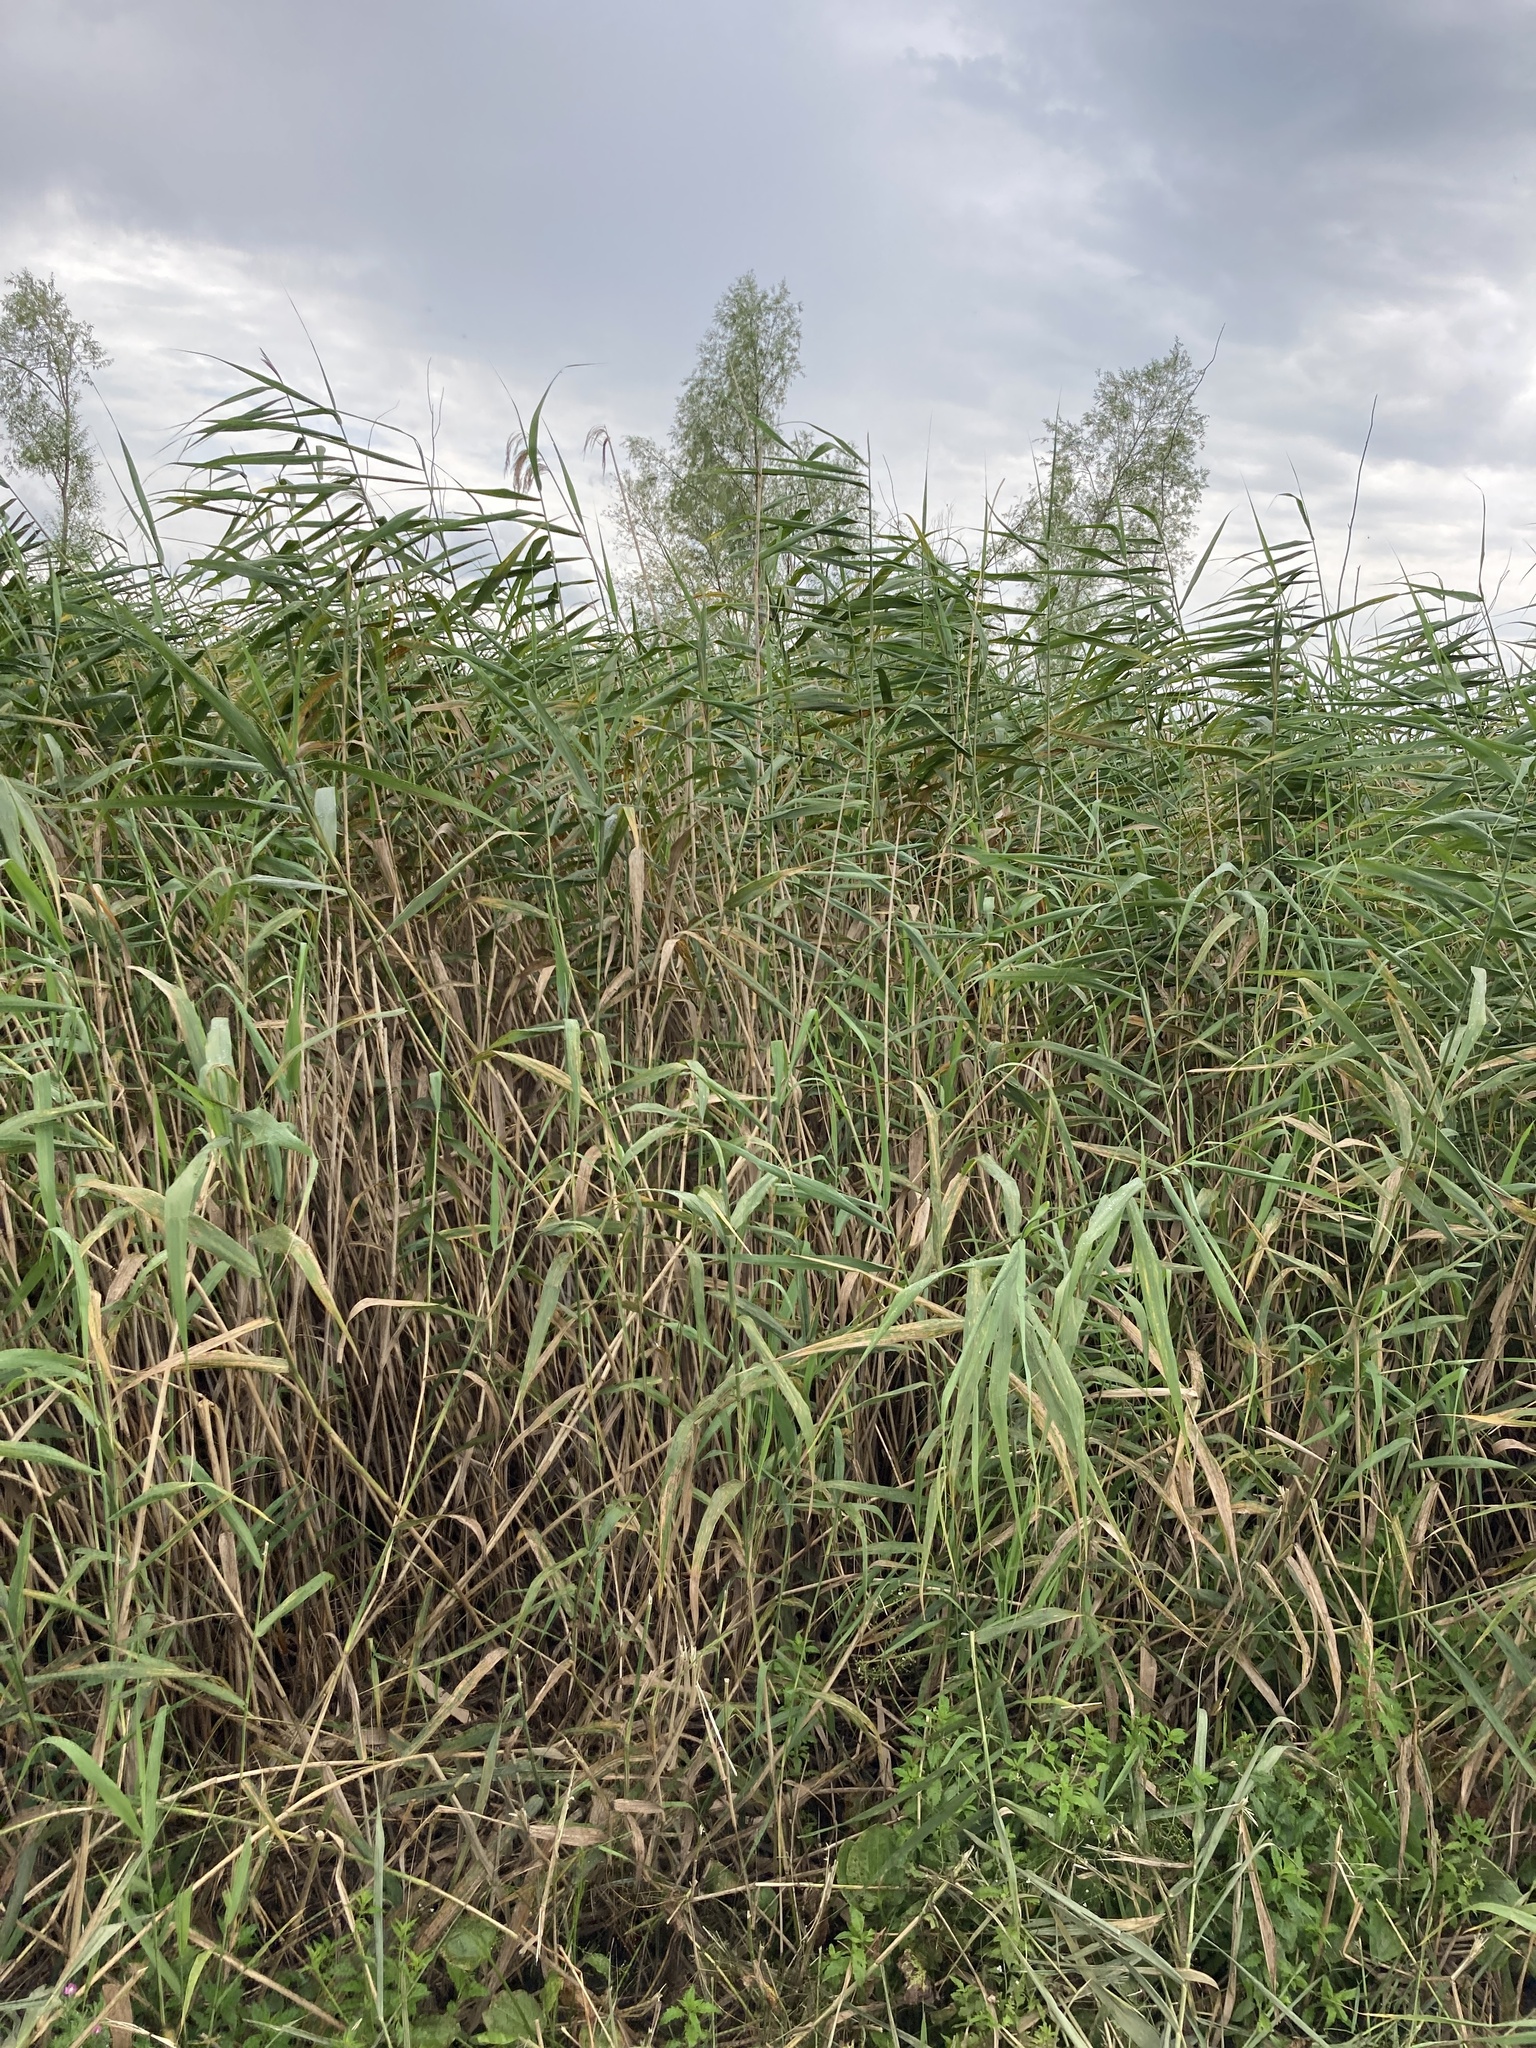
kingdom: Plantae
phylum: Tracheophyta
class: Liliopsida
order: Poales
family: Poaceae
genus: Phragmites
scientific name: Phragmites australis
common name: Common reed
